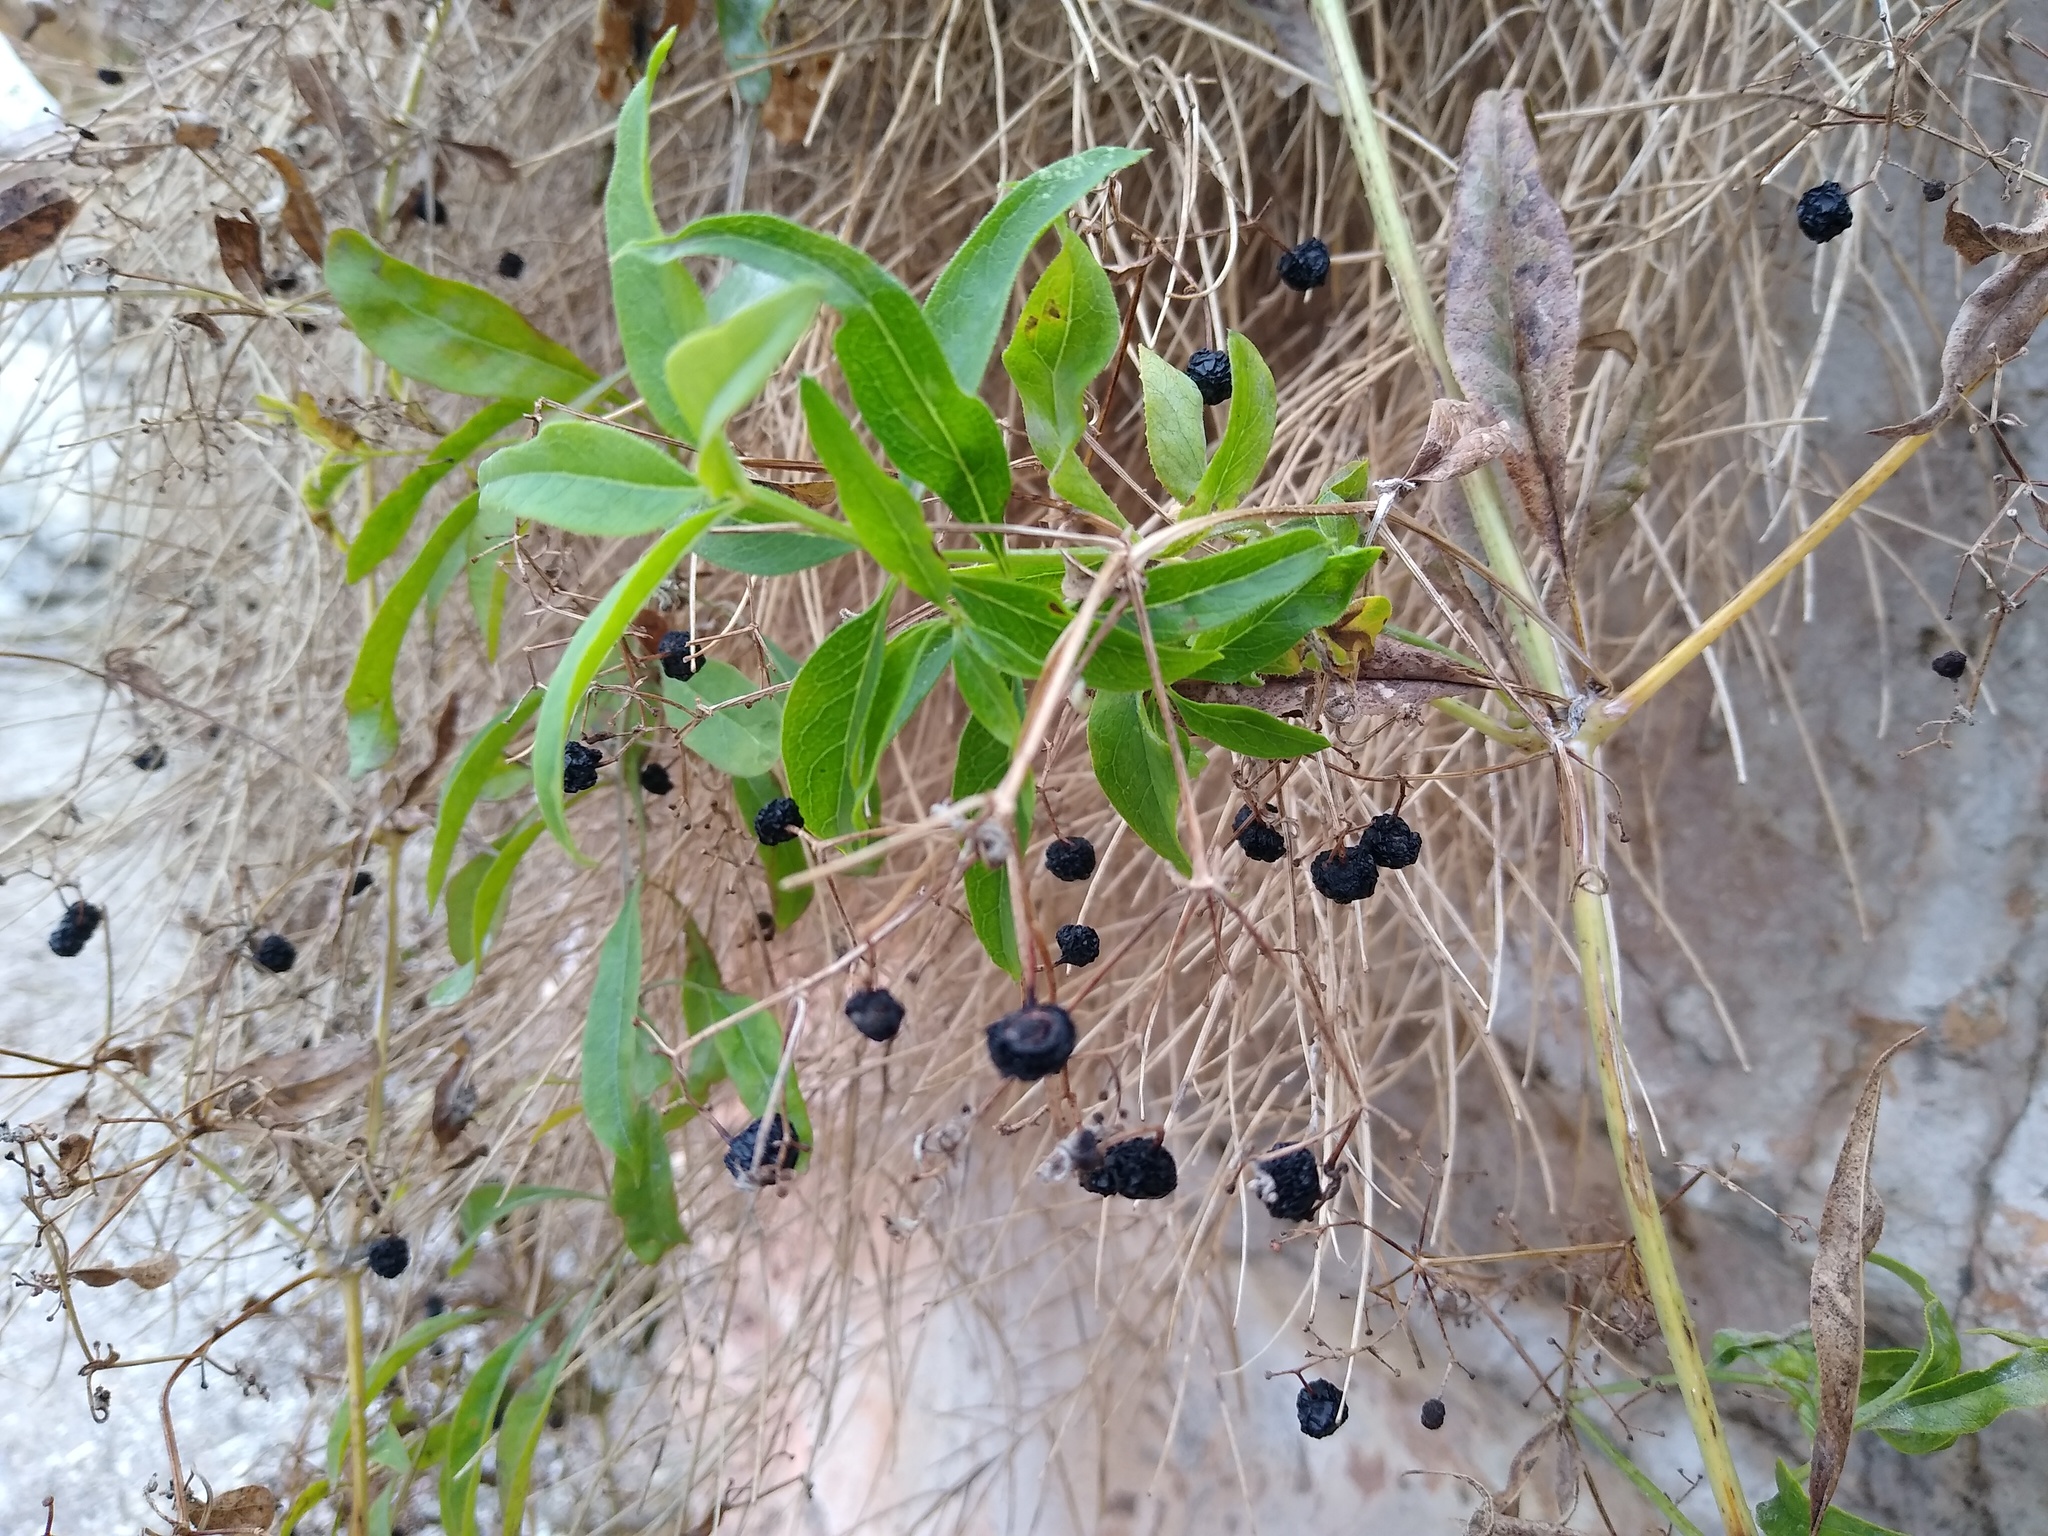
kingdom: Plantae
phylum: Tracheophyta
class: Magnoliopsida
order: Gentianales
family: Rubiaceae
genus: Rubia
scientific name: Rubia tinctorum
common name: Dyer's madder
